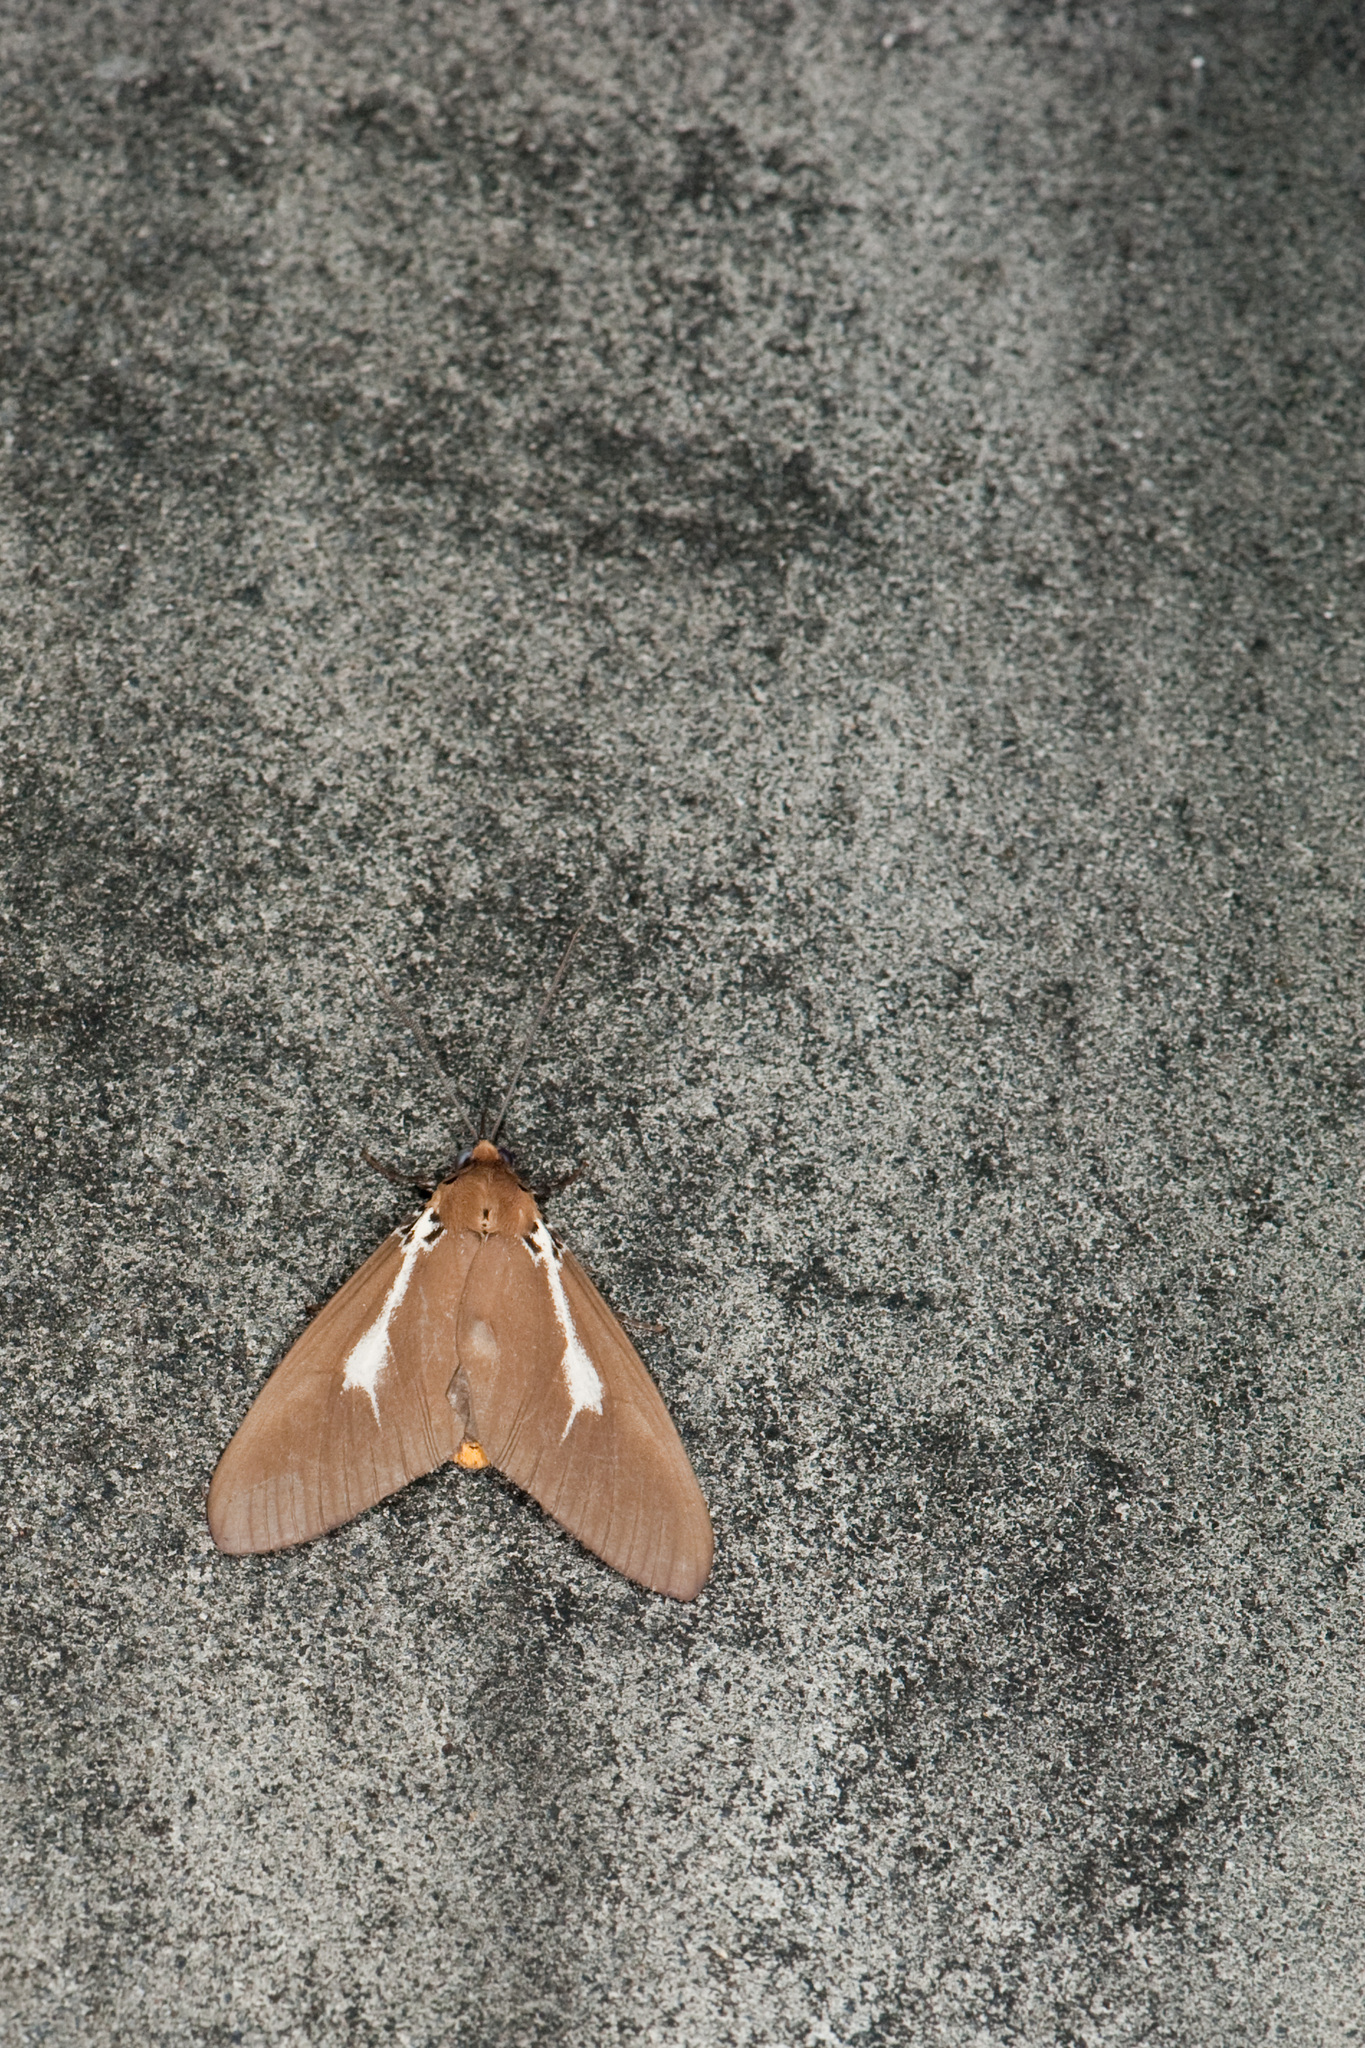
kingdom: Animalia
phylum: Arthropoda
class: Insecta
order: Lepidoptera
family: Erebidae
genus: Asota
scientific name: Asota heliconia
